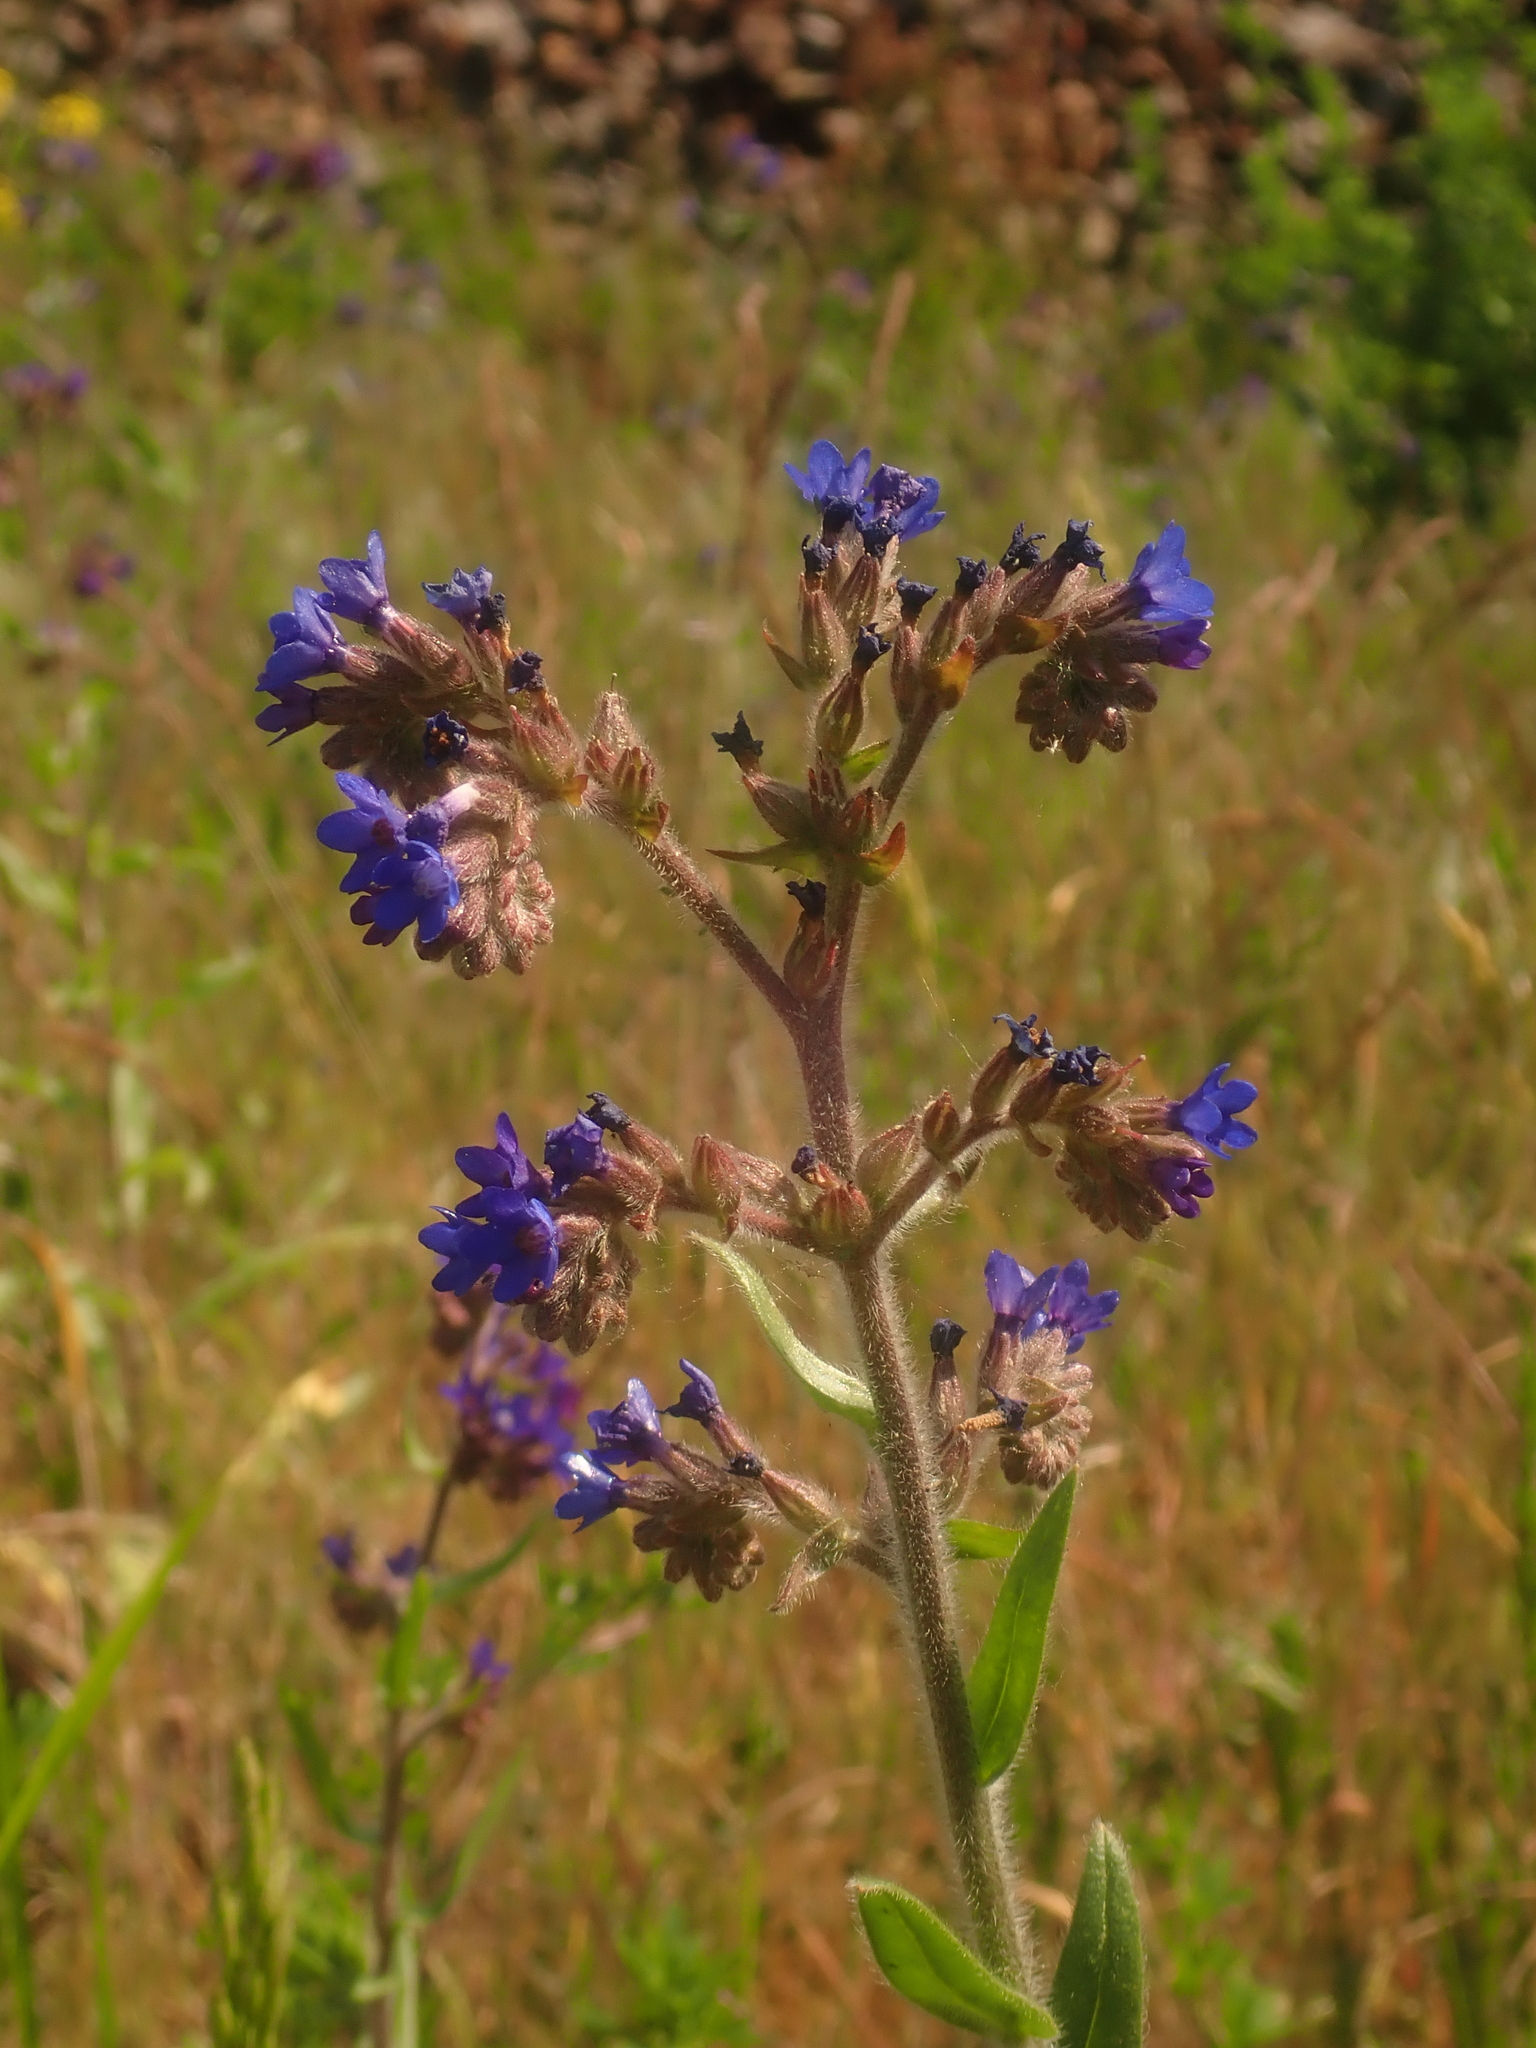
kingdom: Plantae
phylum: Tracheophyta
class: Magnoliopsida
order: Boraginales
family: Boraginaceae
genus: Anchusa
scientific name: Anchusa officinalis
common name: Alkanet
